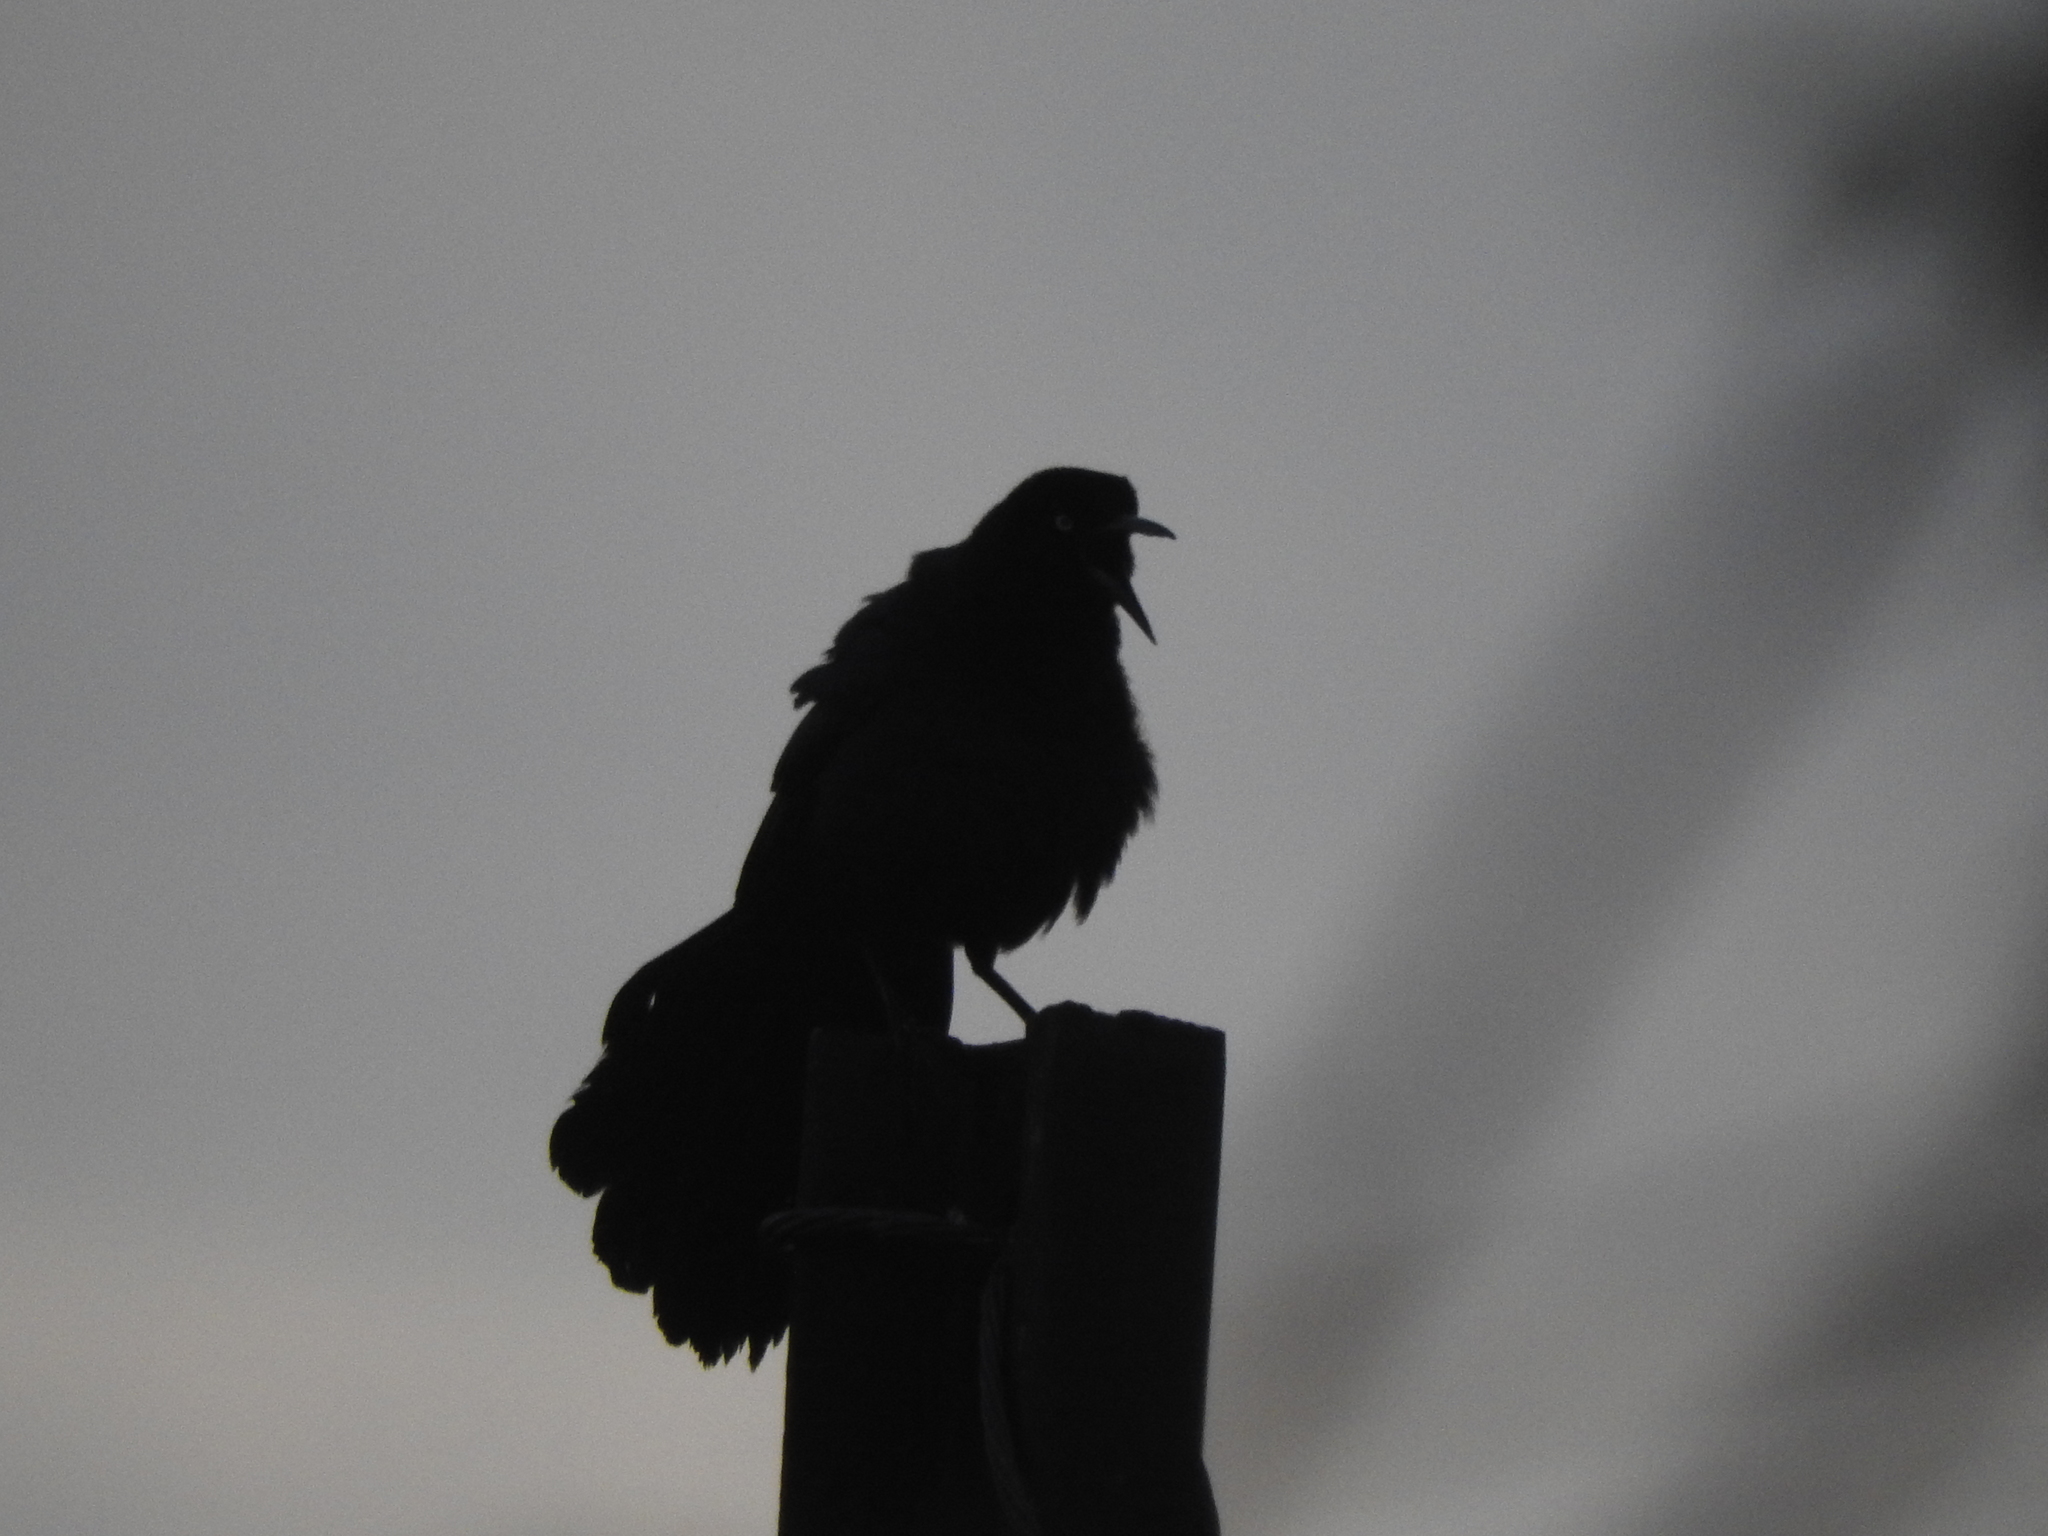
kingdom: Animalia
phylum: Chordata
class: Aves
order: Passeriformes
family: Icteridae
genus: Quiscalus
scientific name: Quiscalus mexicanus
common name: Great-tailed grackle
